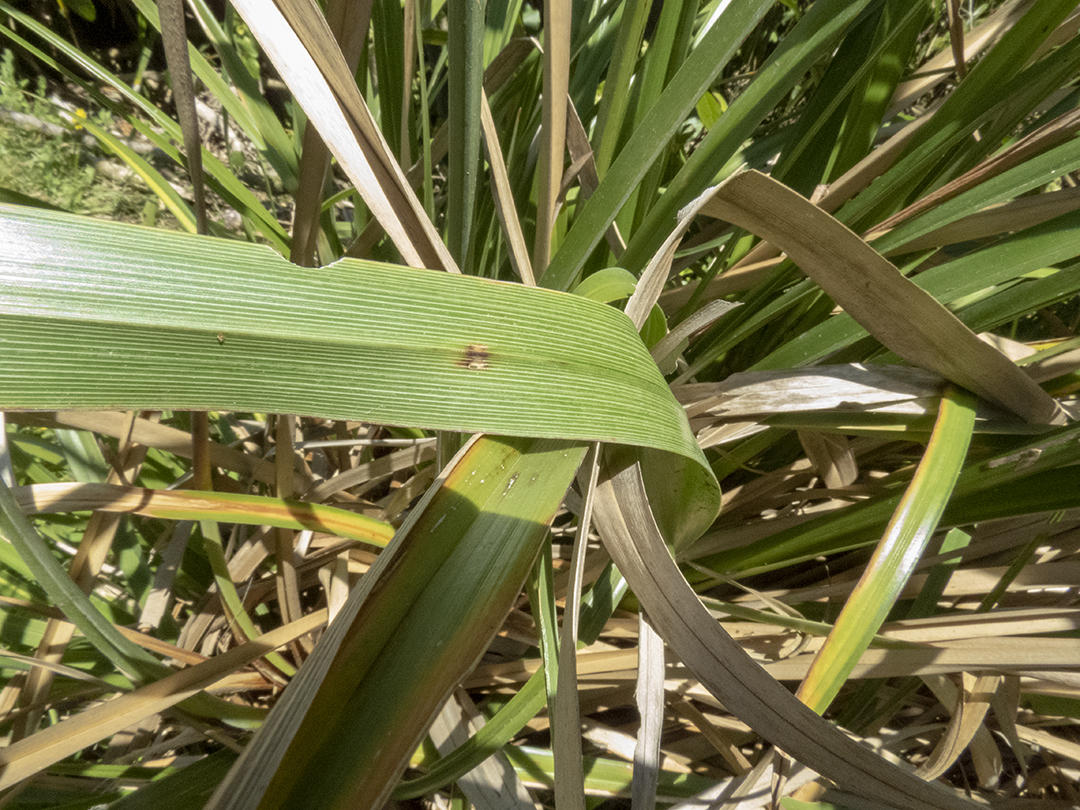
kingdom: Plantae
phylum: Tracheophyta
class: Liliopsida
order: Poales
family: Cyperaceae
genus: Cyperus
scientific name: Cyperus ustulatus
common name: Giant umbrella-sedge
